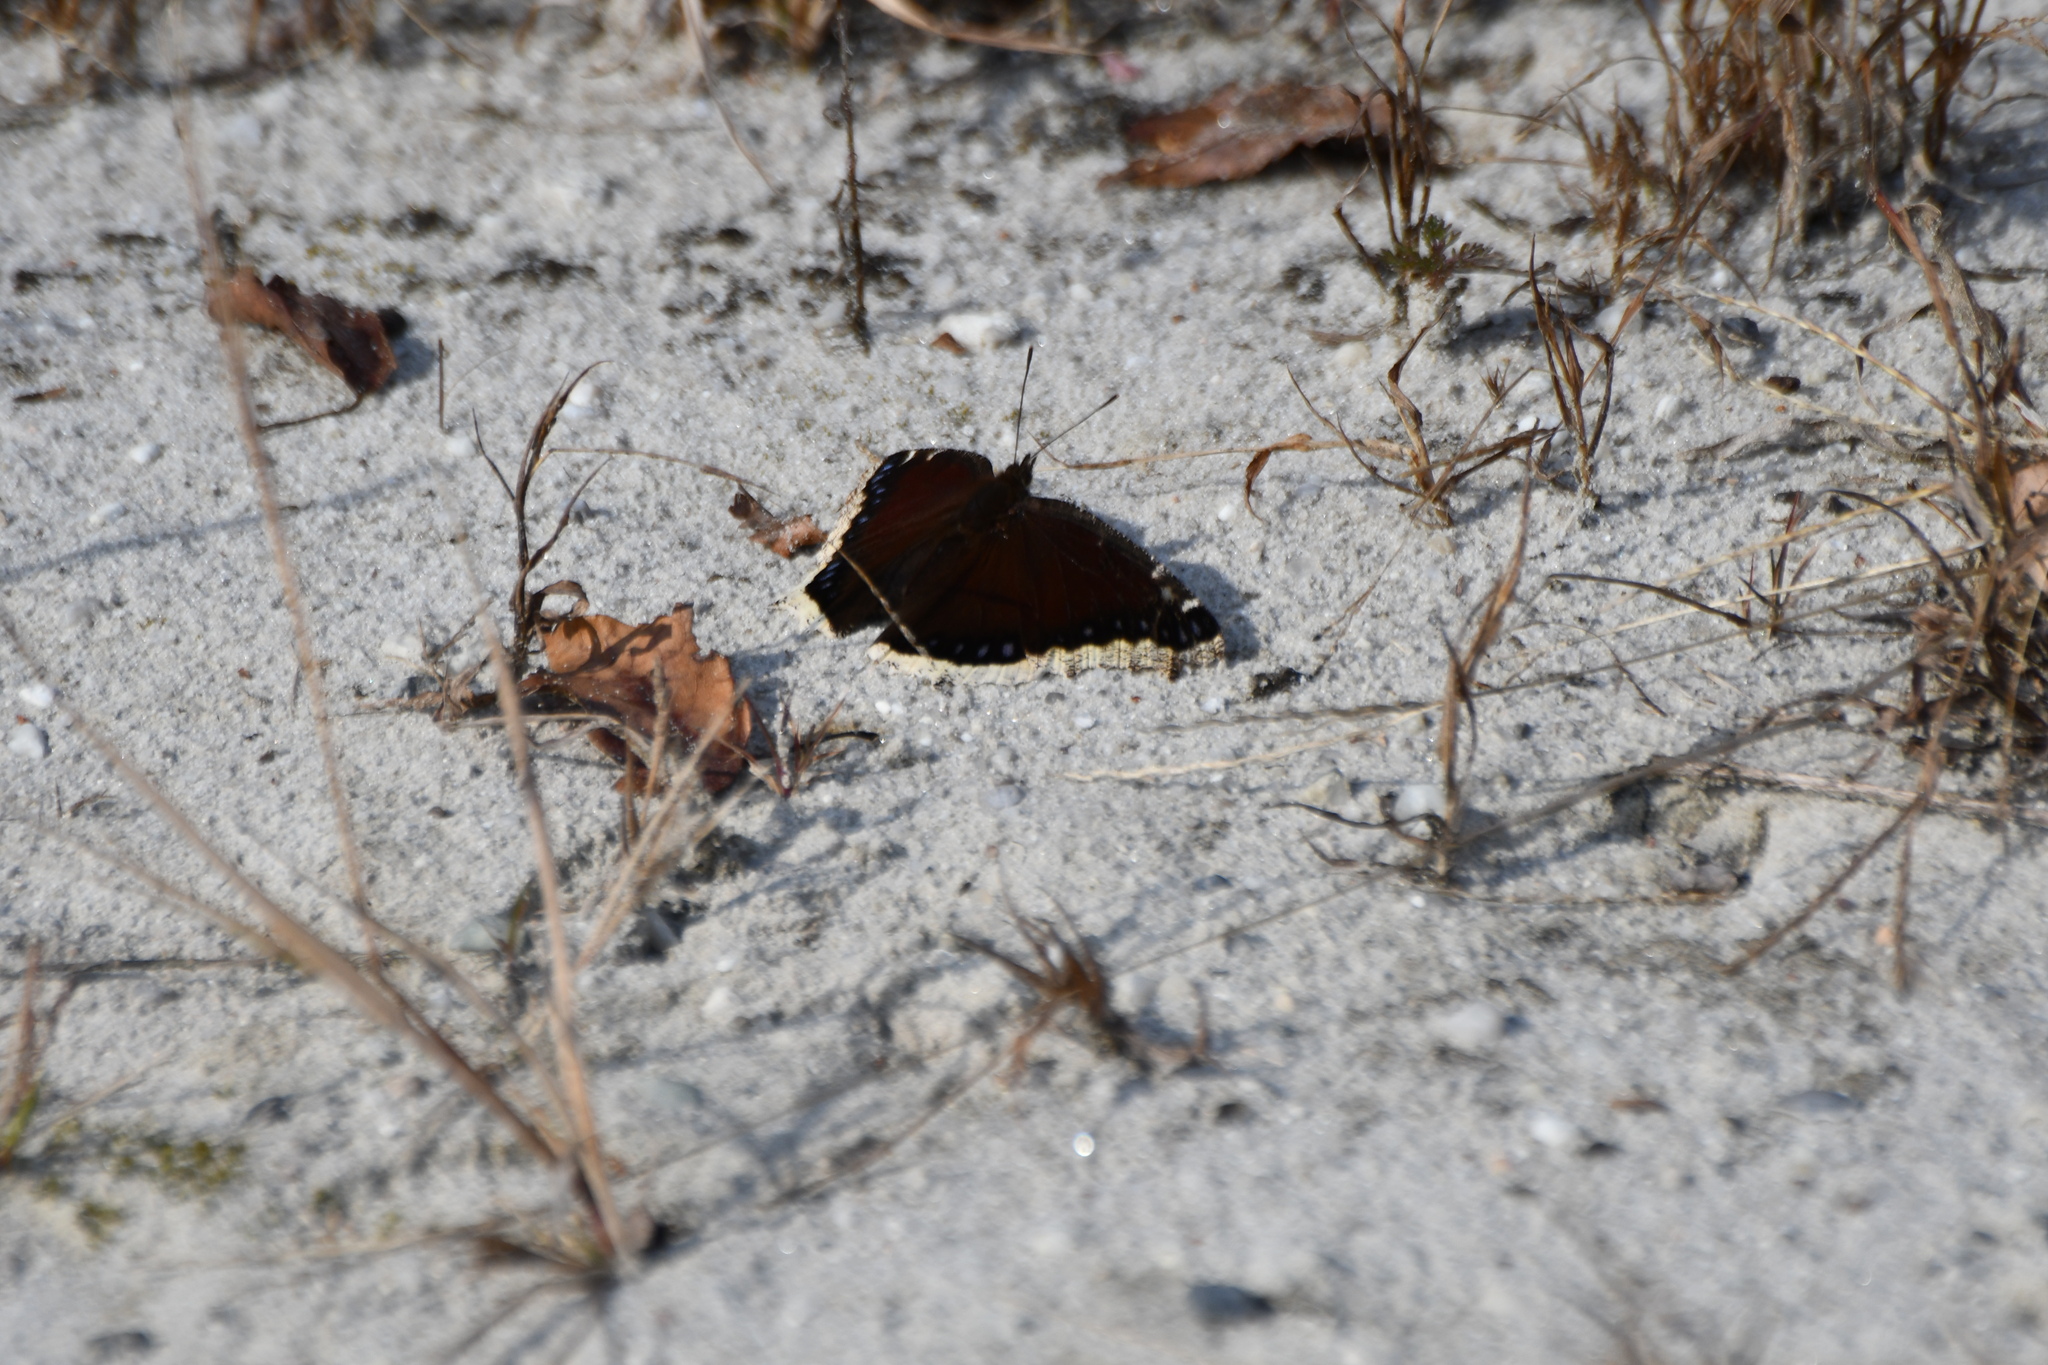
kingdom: Animalia
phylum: Arthropoda
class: Insecta
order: Lepidoptera
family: Nymphalidae
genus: Nymphalis
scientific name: Nymphalis antiopa
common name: Camberwell beauty
